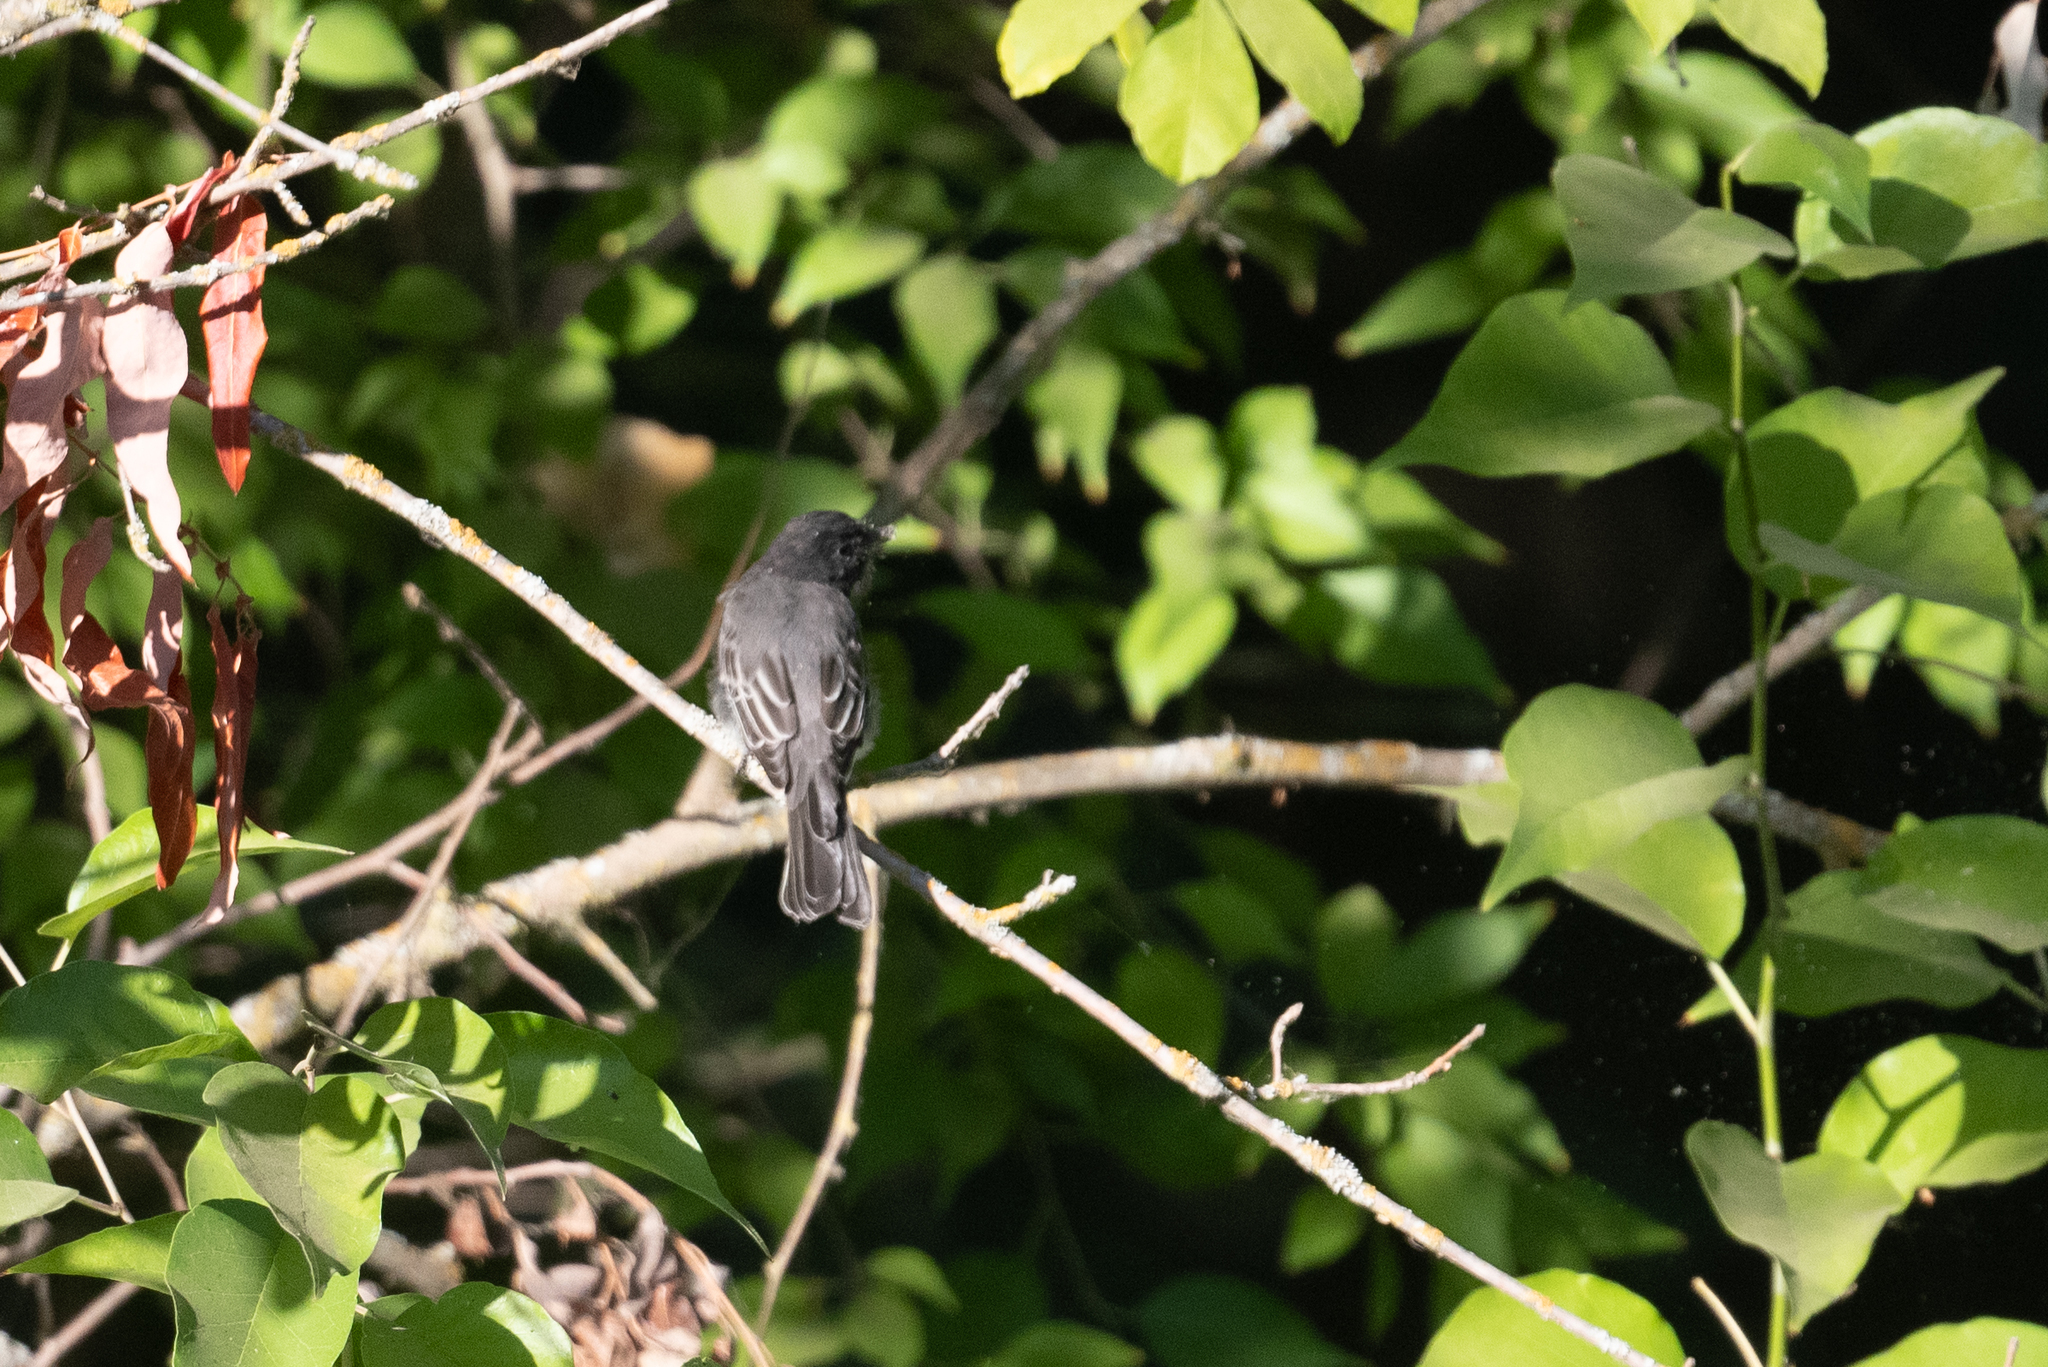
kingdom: Animalia
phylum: Chordata
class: Aves
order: Passeriformes
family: Tyrannidae
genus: Sayornis
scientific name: Sayornis nigricans
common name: Black phoebe
